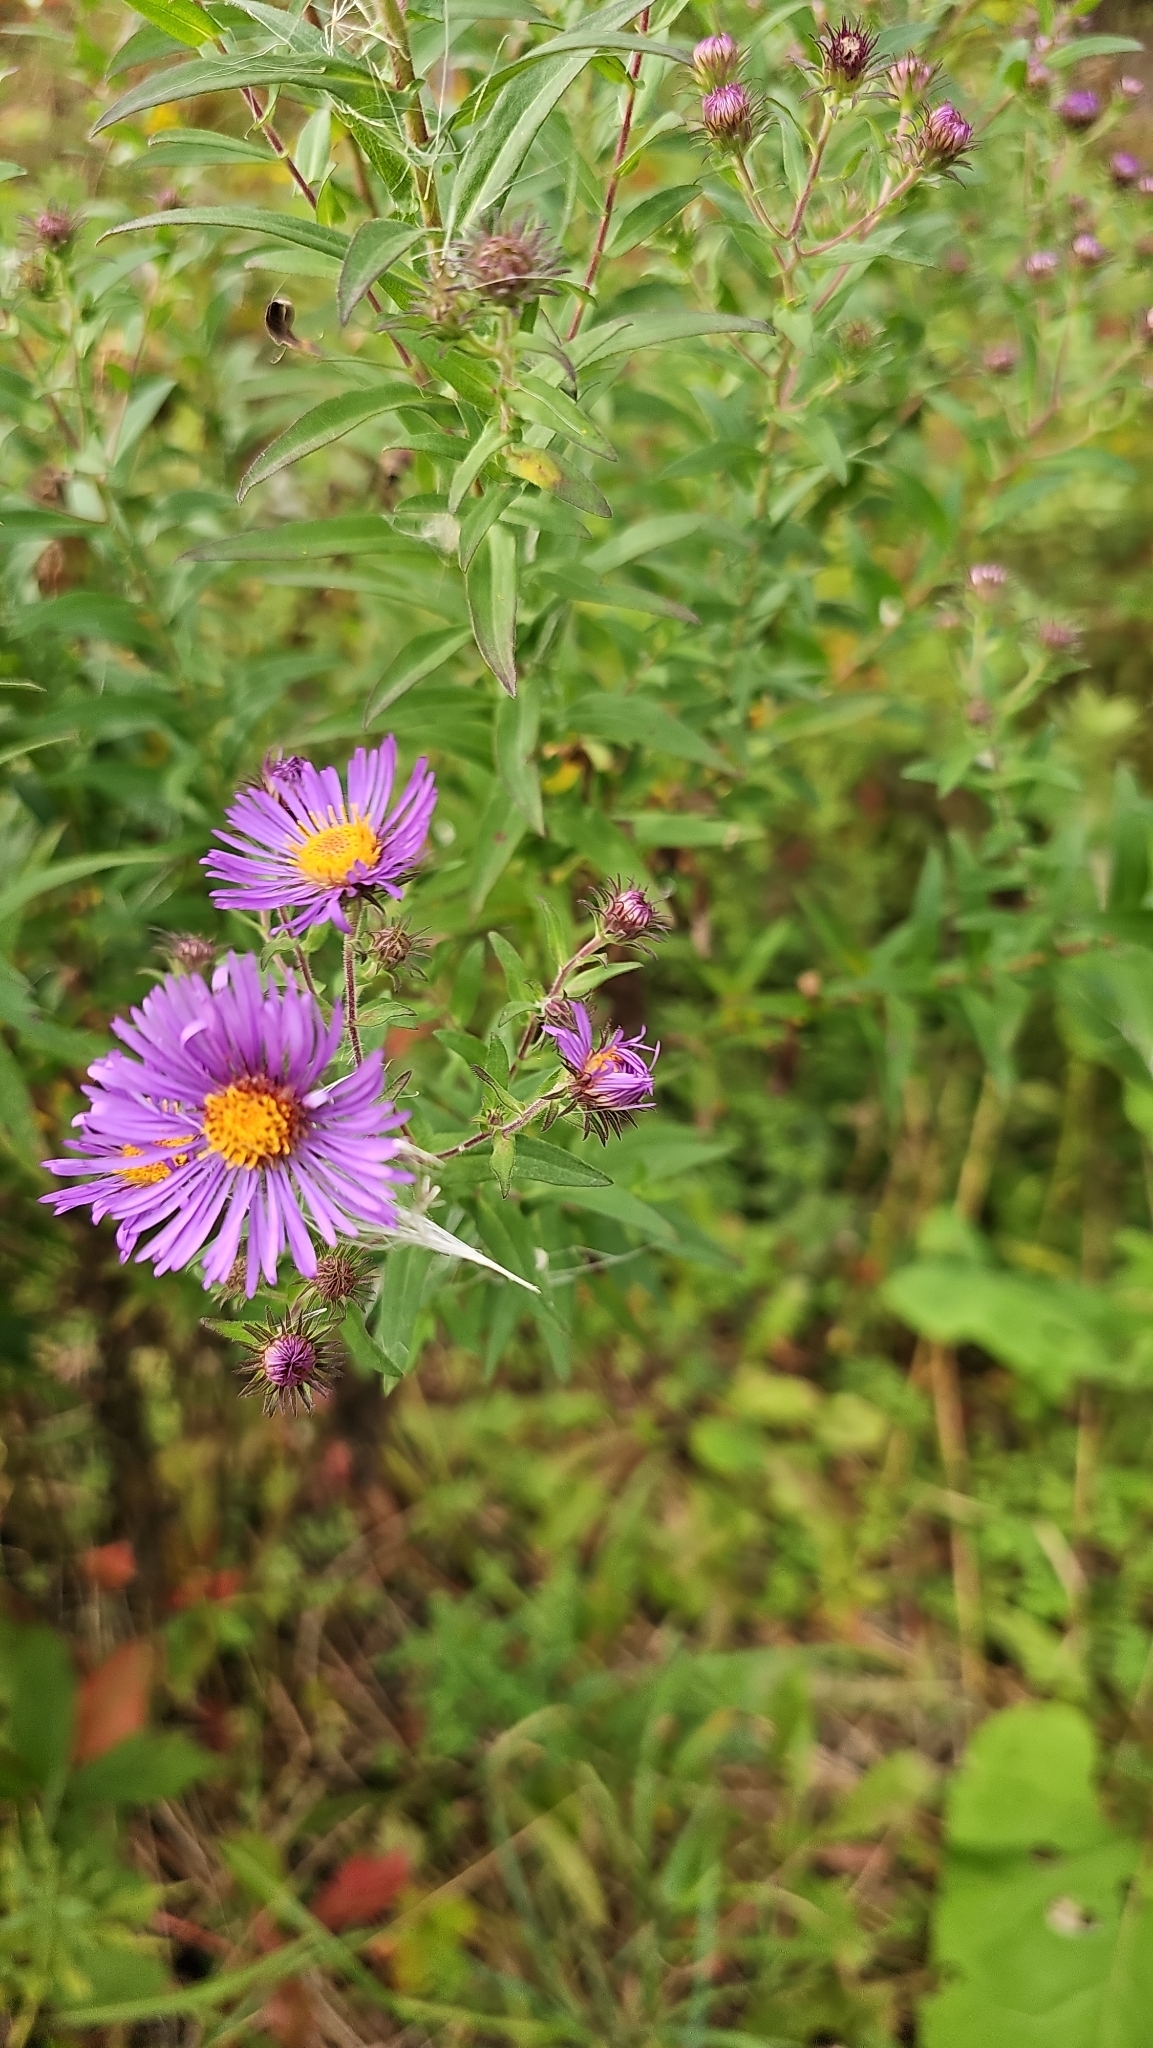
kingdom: Plantae
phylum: Tracheophyta
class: Magnoliopsida
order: Asterales
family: Asteraceae
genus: Symphyotrichum
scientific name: Symphyotrichum novae-angliae
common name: Michaelmas daisy
